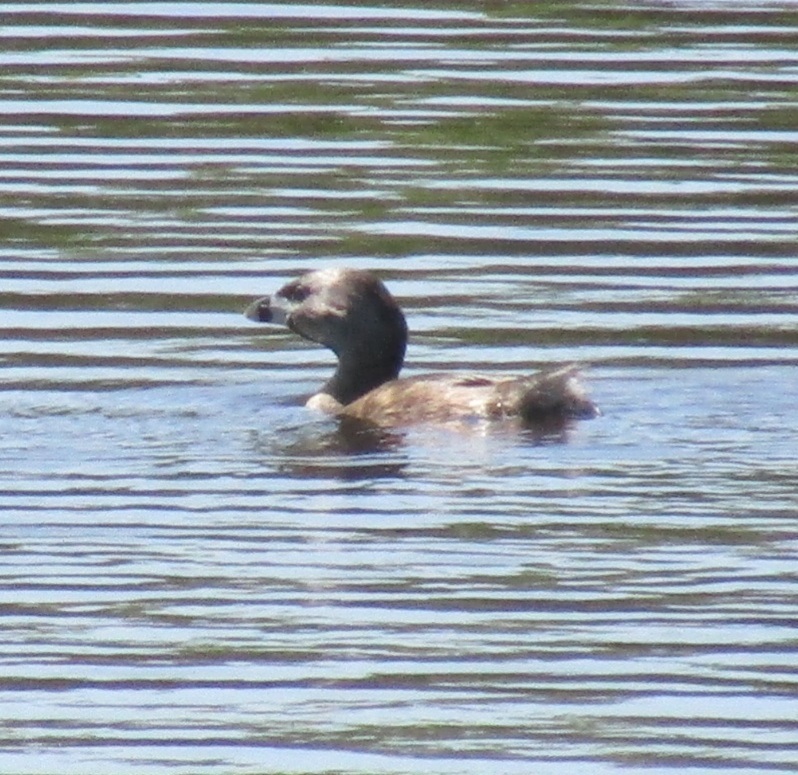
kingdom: Animalia
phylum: Chordata
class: Aves
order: Podicipediformes
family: Podicipedidae
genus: Podilymbus
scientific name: Podilymbus podiceps
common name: Pied-billed grebe
